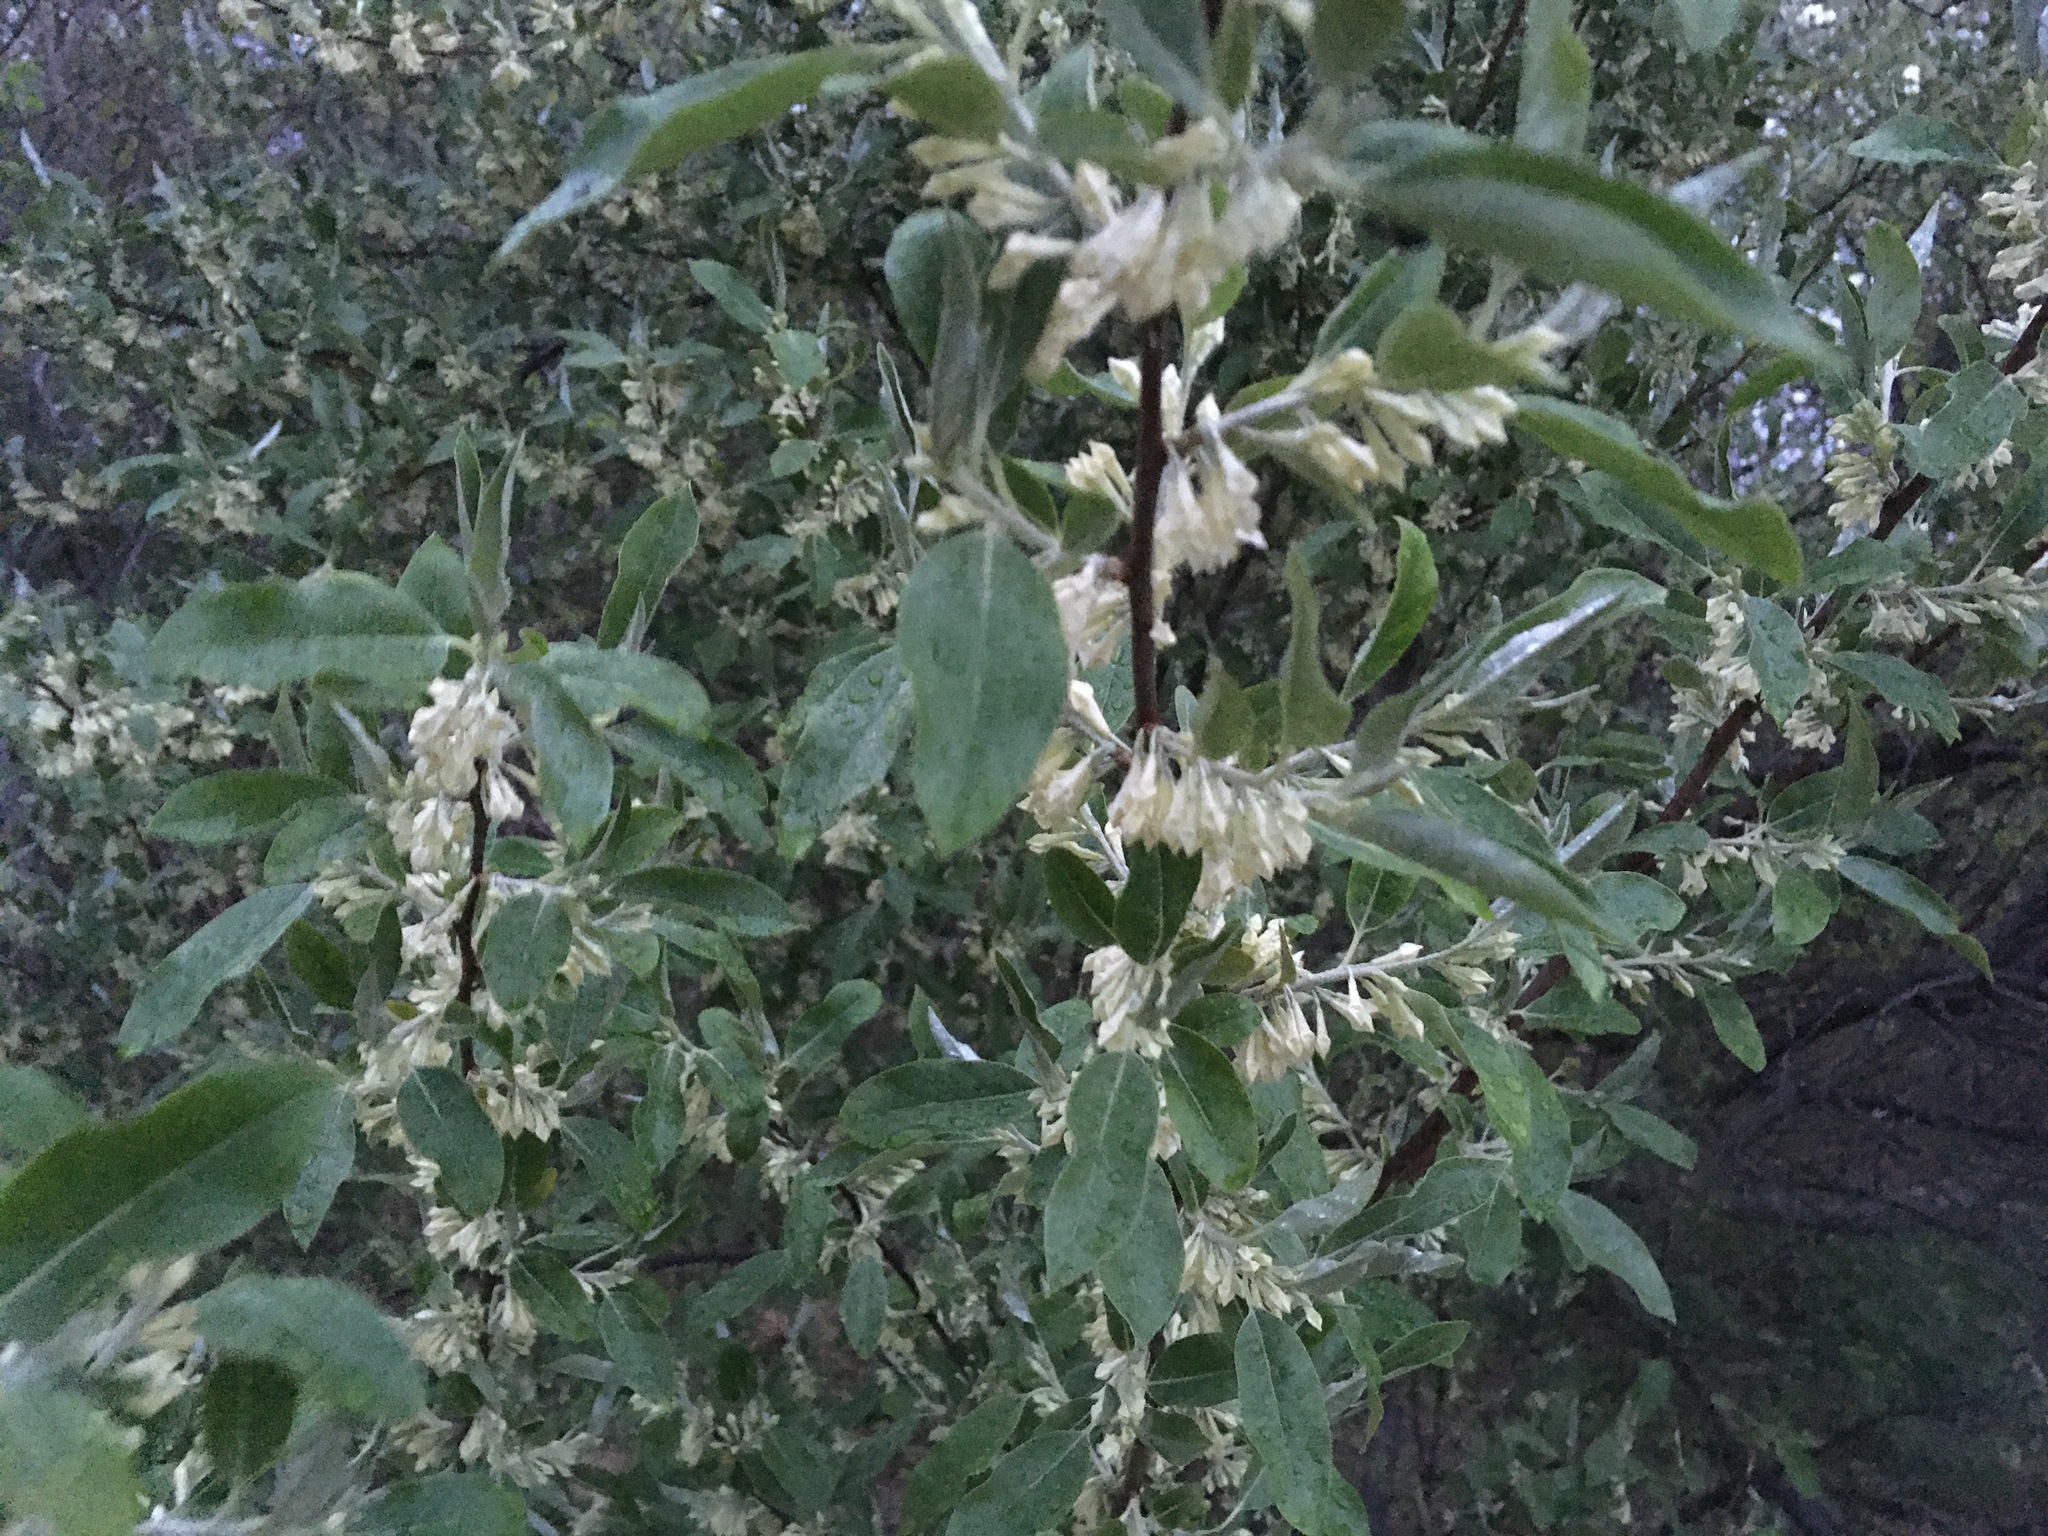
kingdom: Plantae
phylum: Tracheophyta
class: Magnoliopsida
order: Rosales
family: Elaeagnaceae
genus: Elaeagnus
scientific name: Elaeagnus umbellata
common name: Autumn olive
